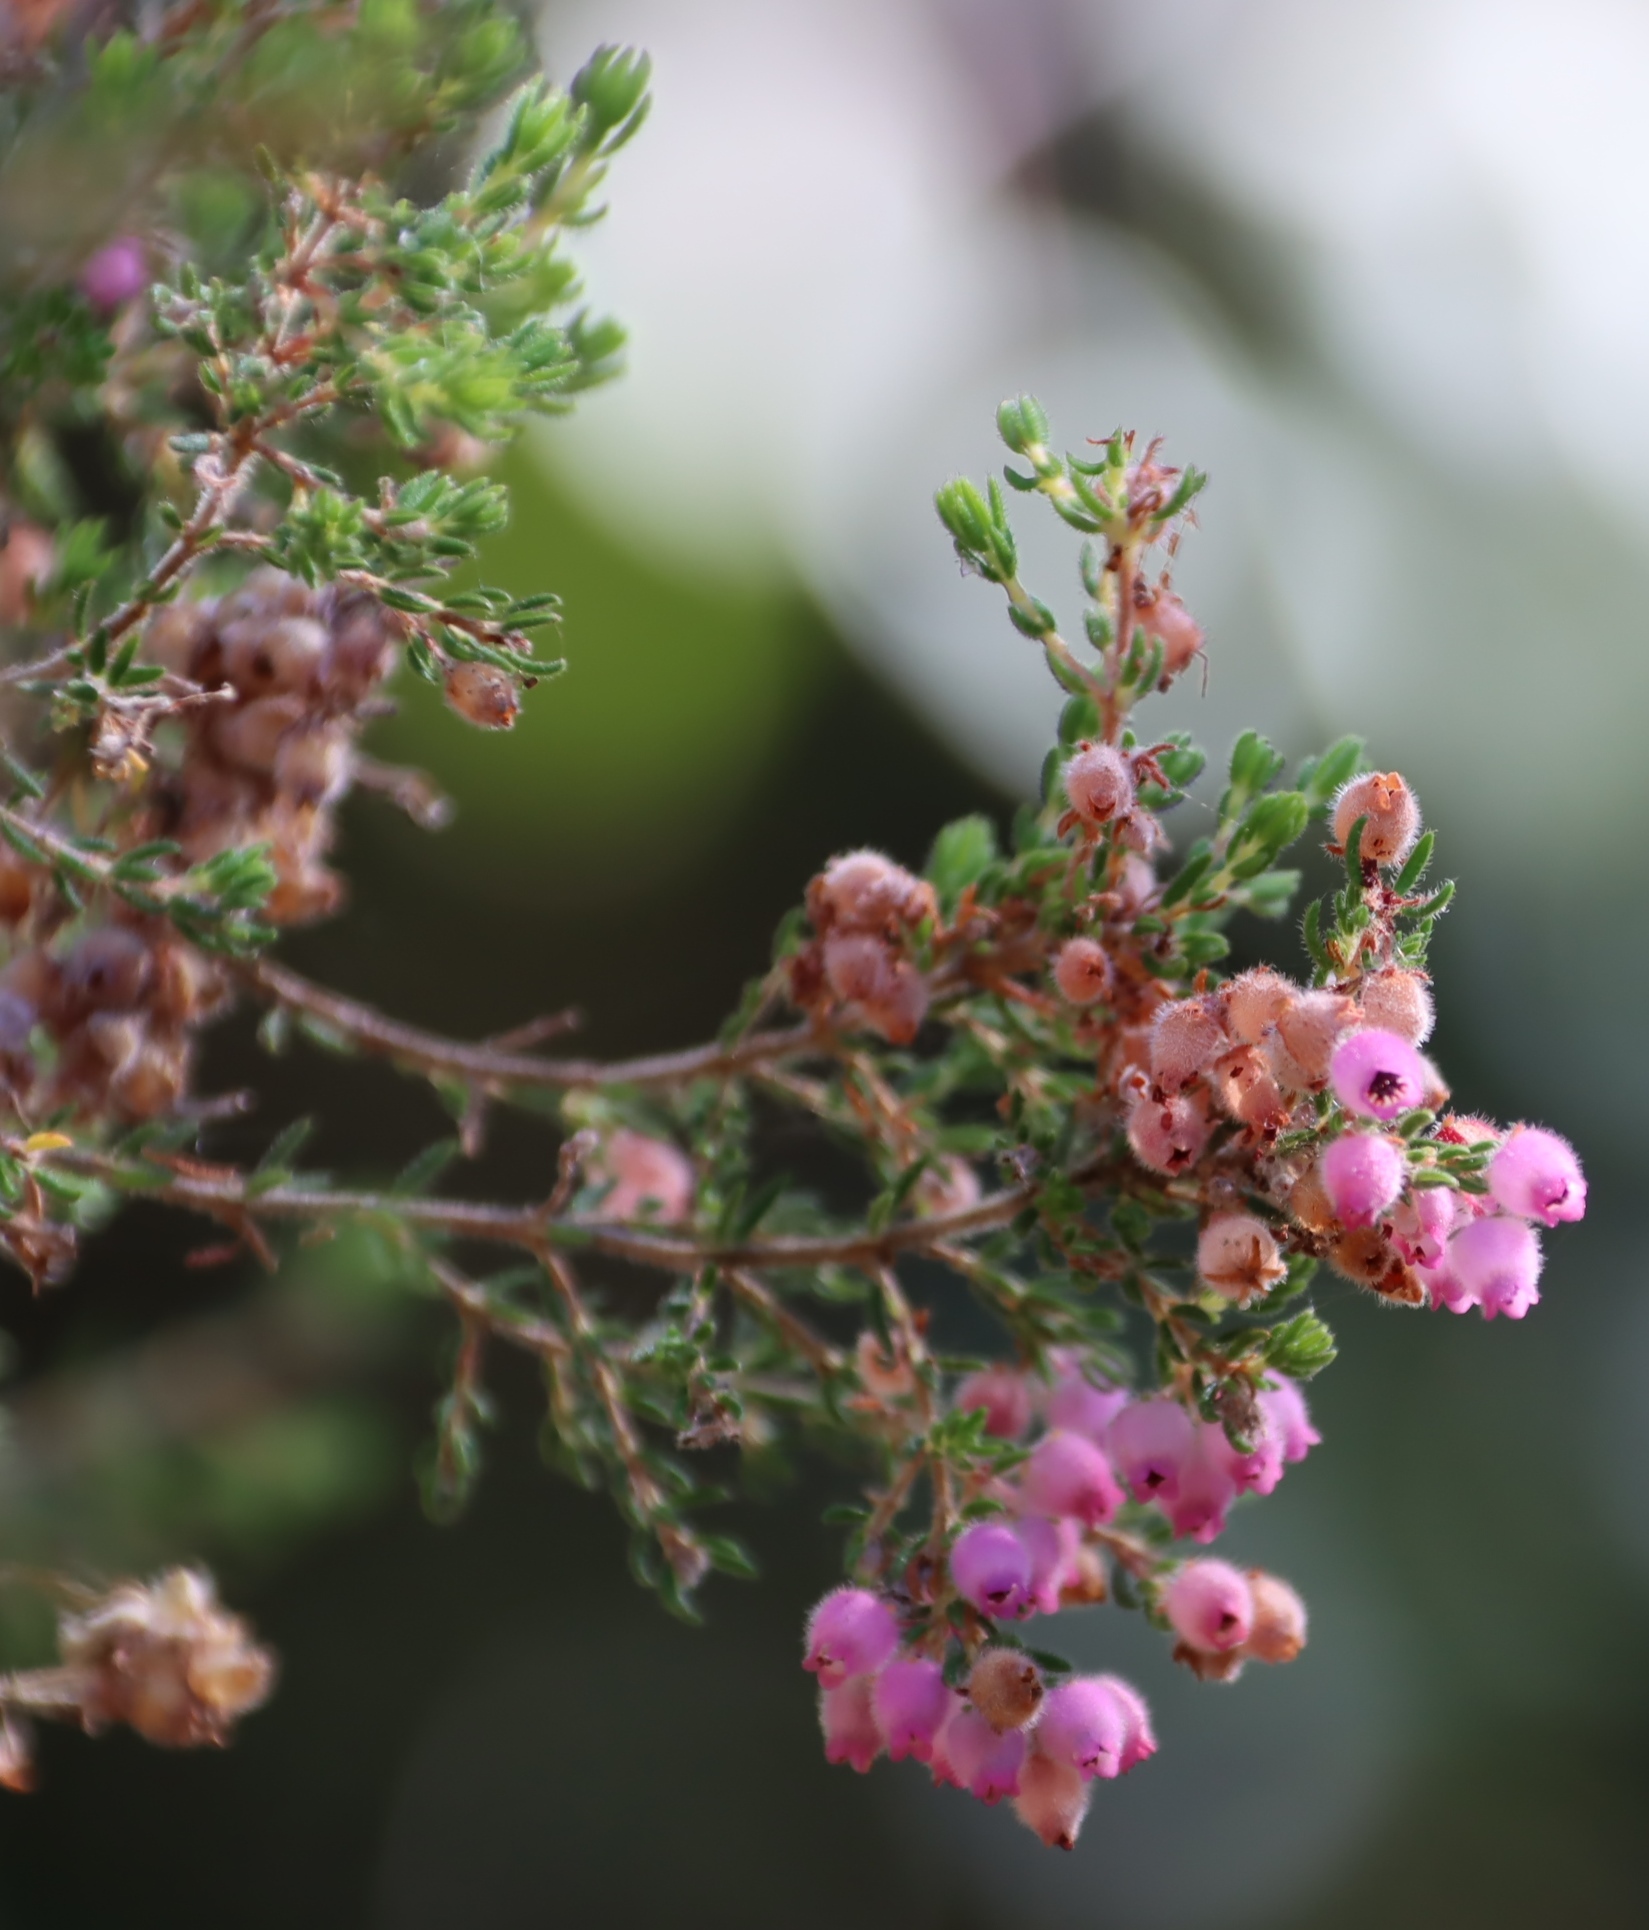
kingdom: Plantae
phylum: Tracheophyta
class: Magnoliopsida
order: Ericales
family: Ericaceae
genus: Erica
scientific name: Erica hirtiflora
